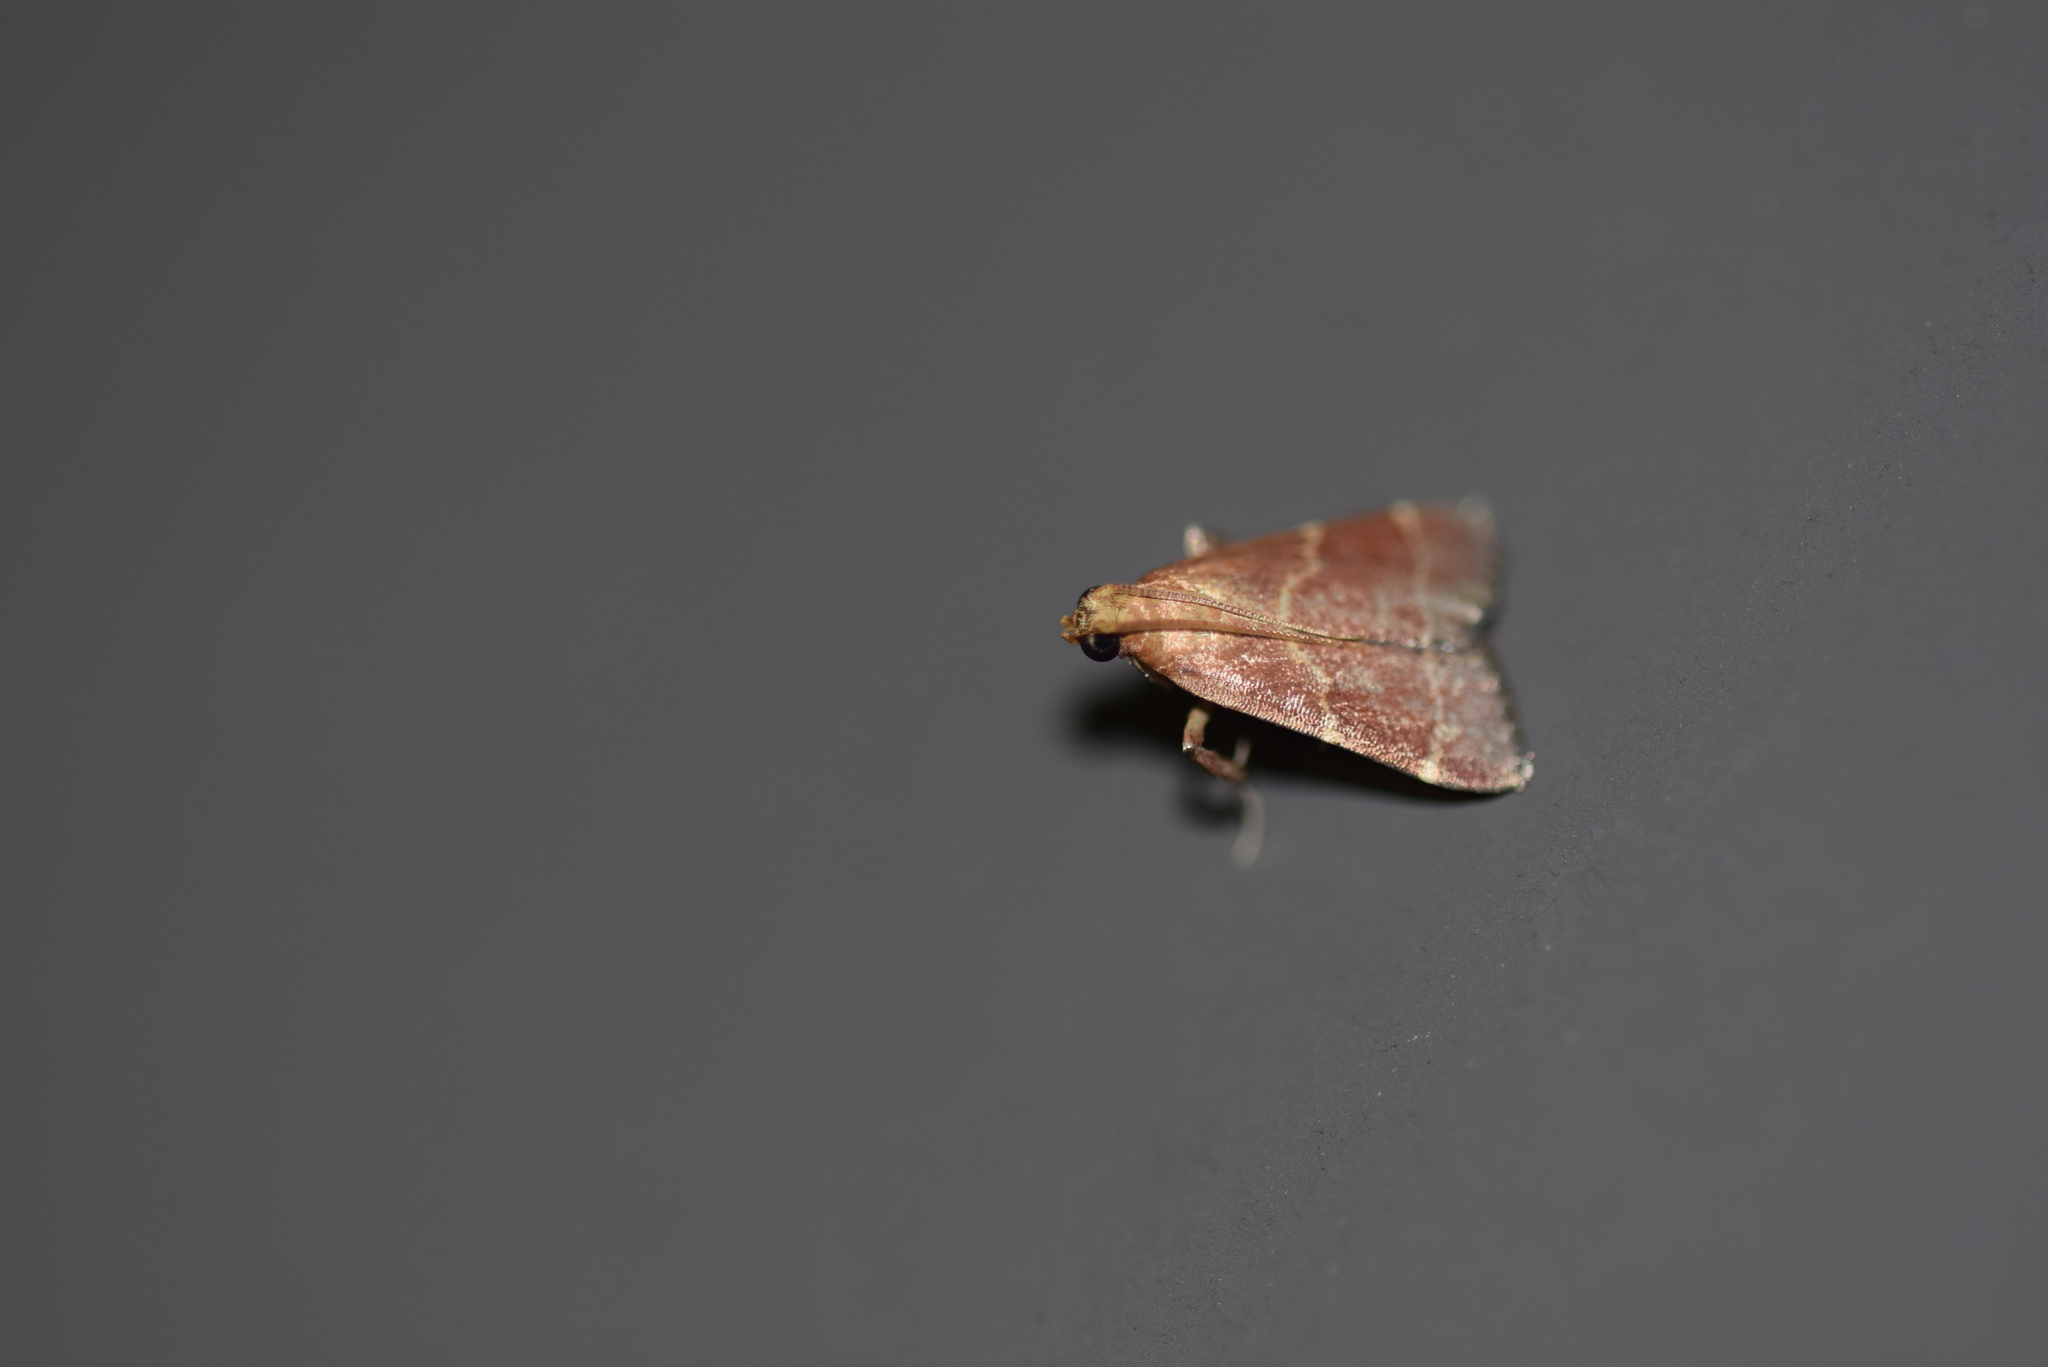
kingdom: Animalia
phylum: Arthropoda
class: Insecta
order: Lepidoptera
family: Pyralidae
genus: Arta
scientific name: Arta statalis
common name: Posturing arta moth
